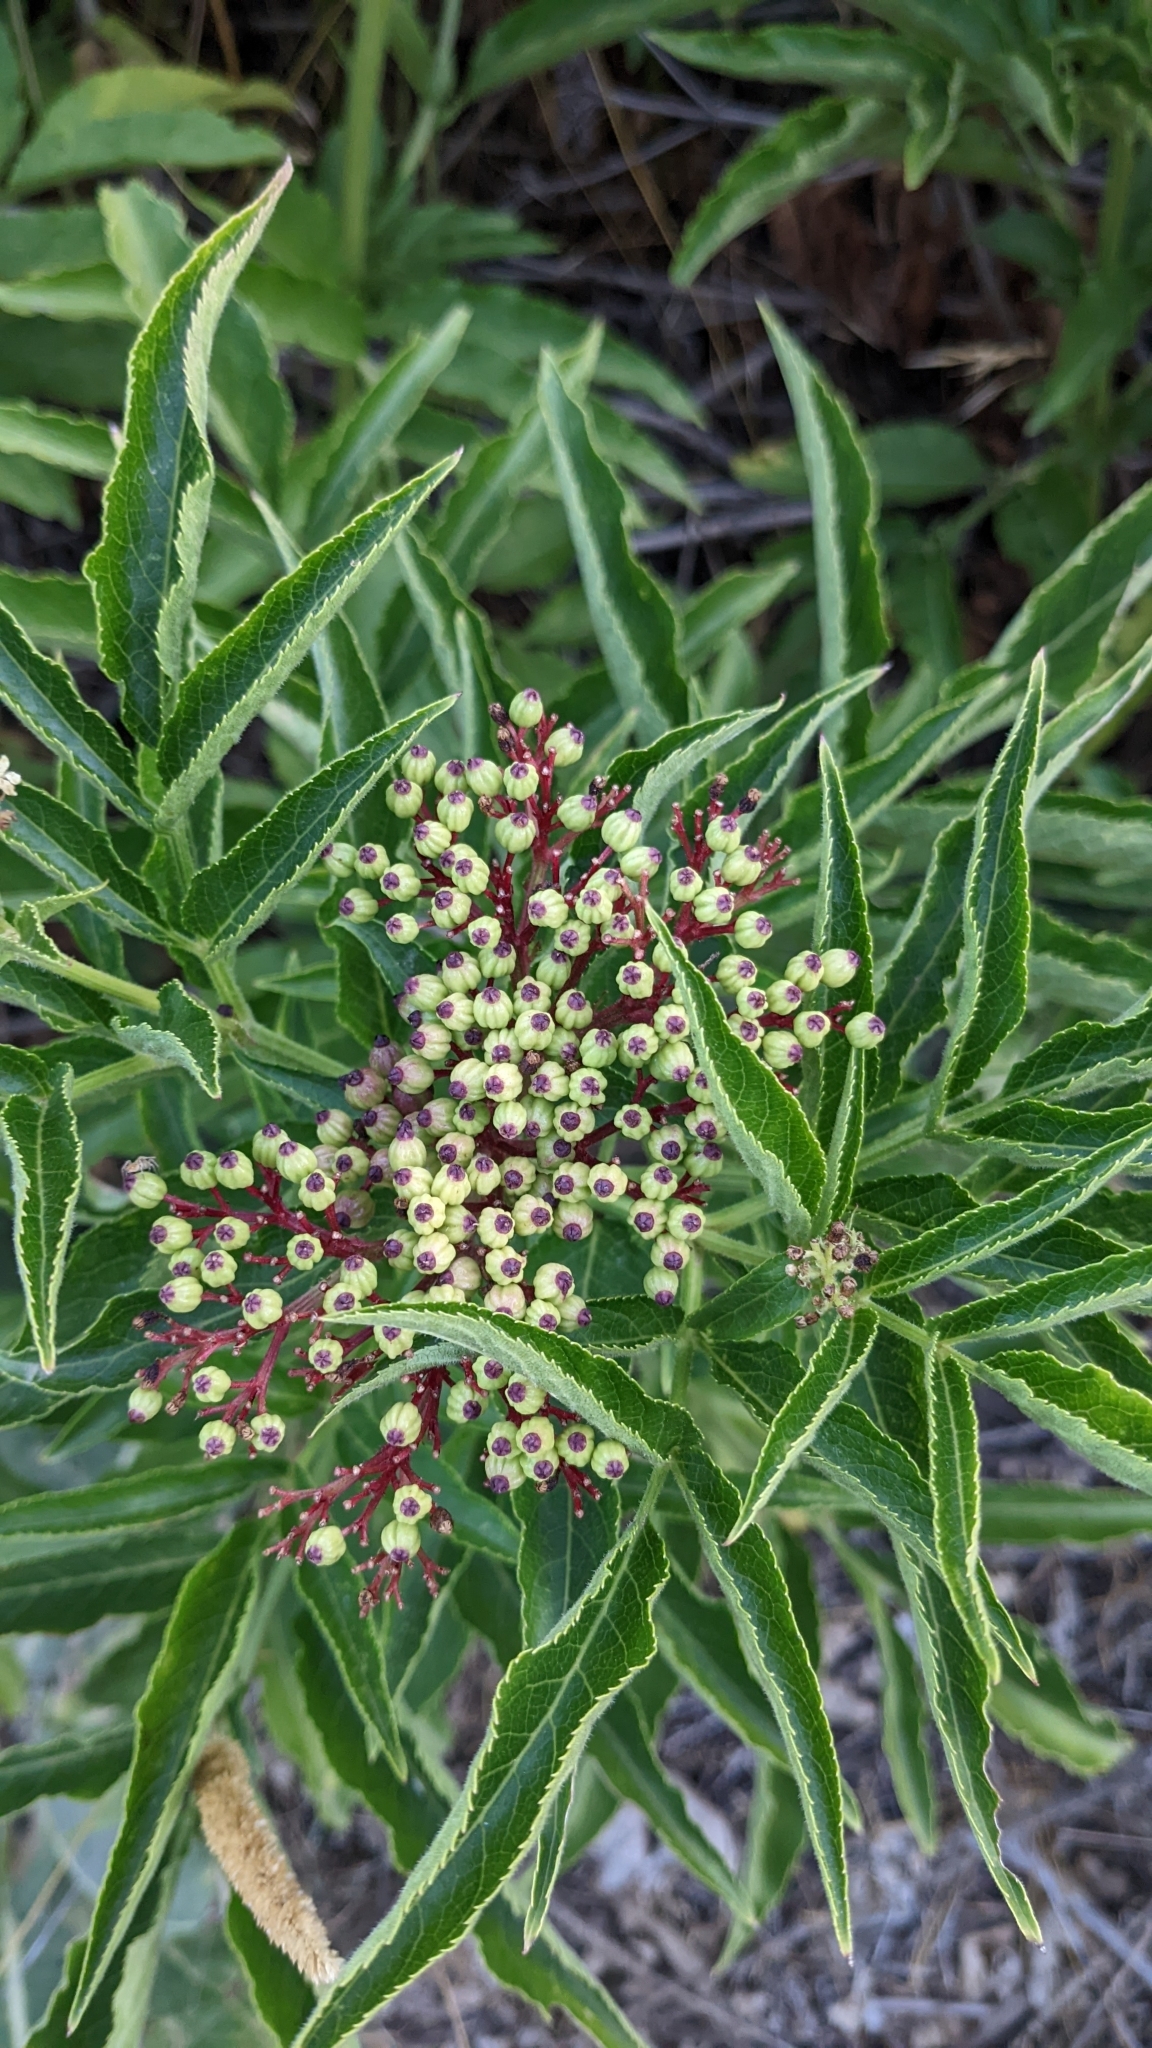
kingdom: Plantae
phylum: Tracheophyta
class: Magnoliopsida
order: Dipsacales
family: Viburnaceae
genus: Sambucus
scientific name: Sambucus ebulus
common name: Dwarf elder
